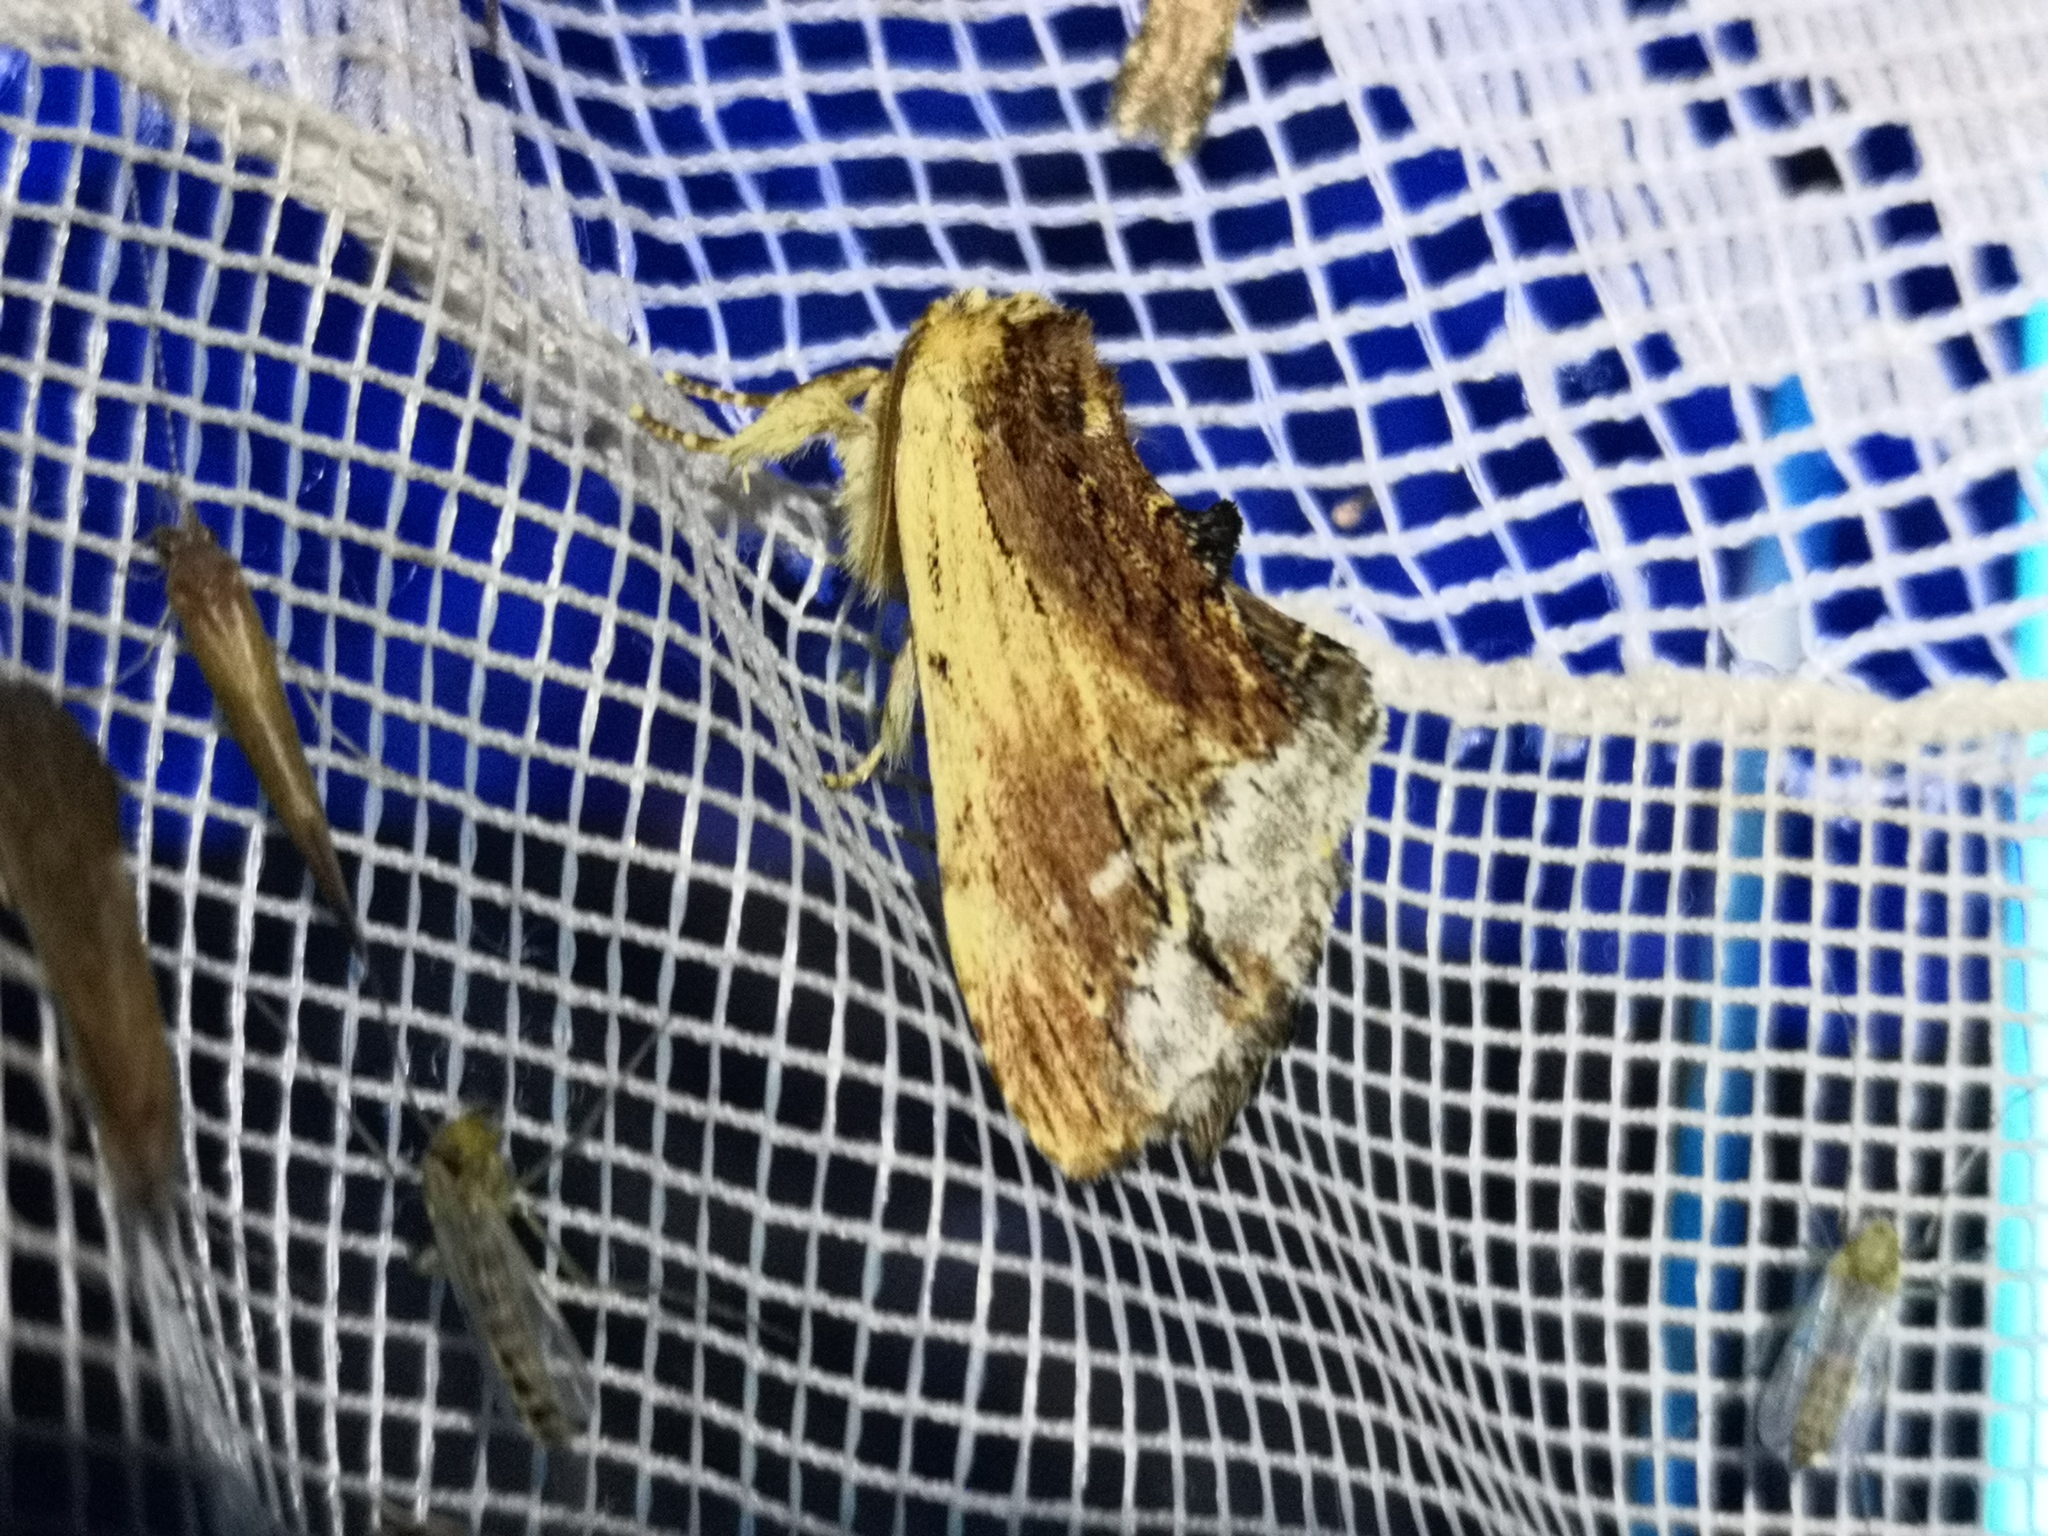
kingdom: Animalia
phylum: Arthropoda
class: Insecta
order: Lepidoptera
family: Notodontidae
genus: Ptilodon
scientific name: Ptilodon cucullina
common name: Maple prominent
